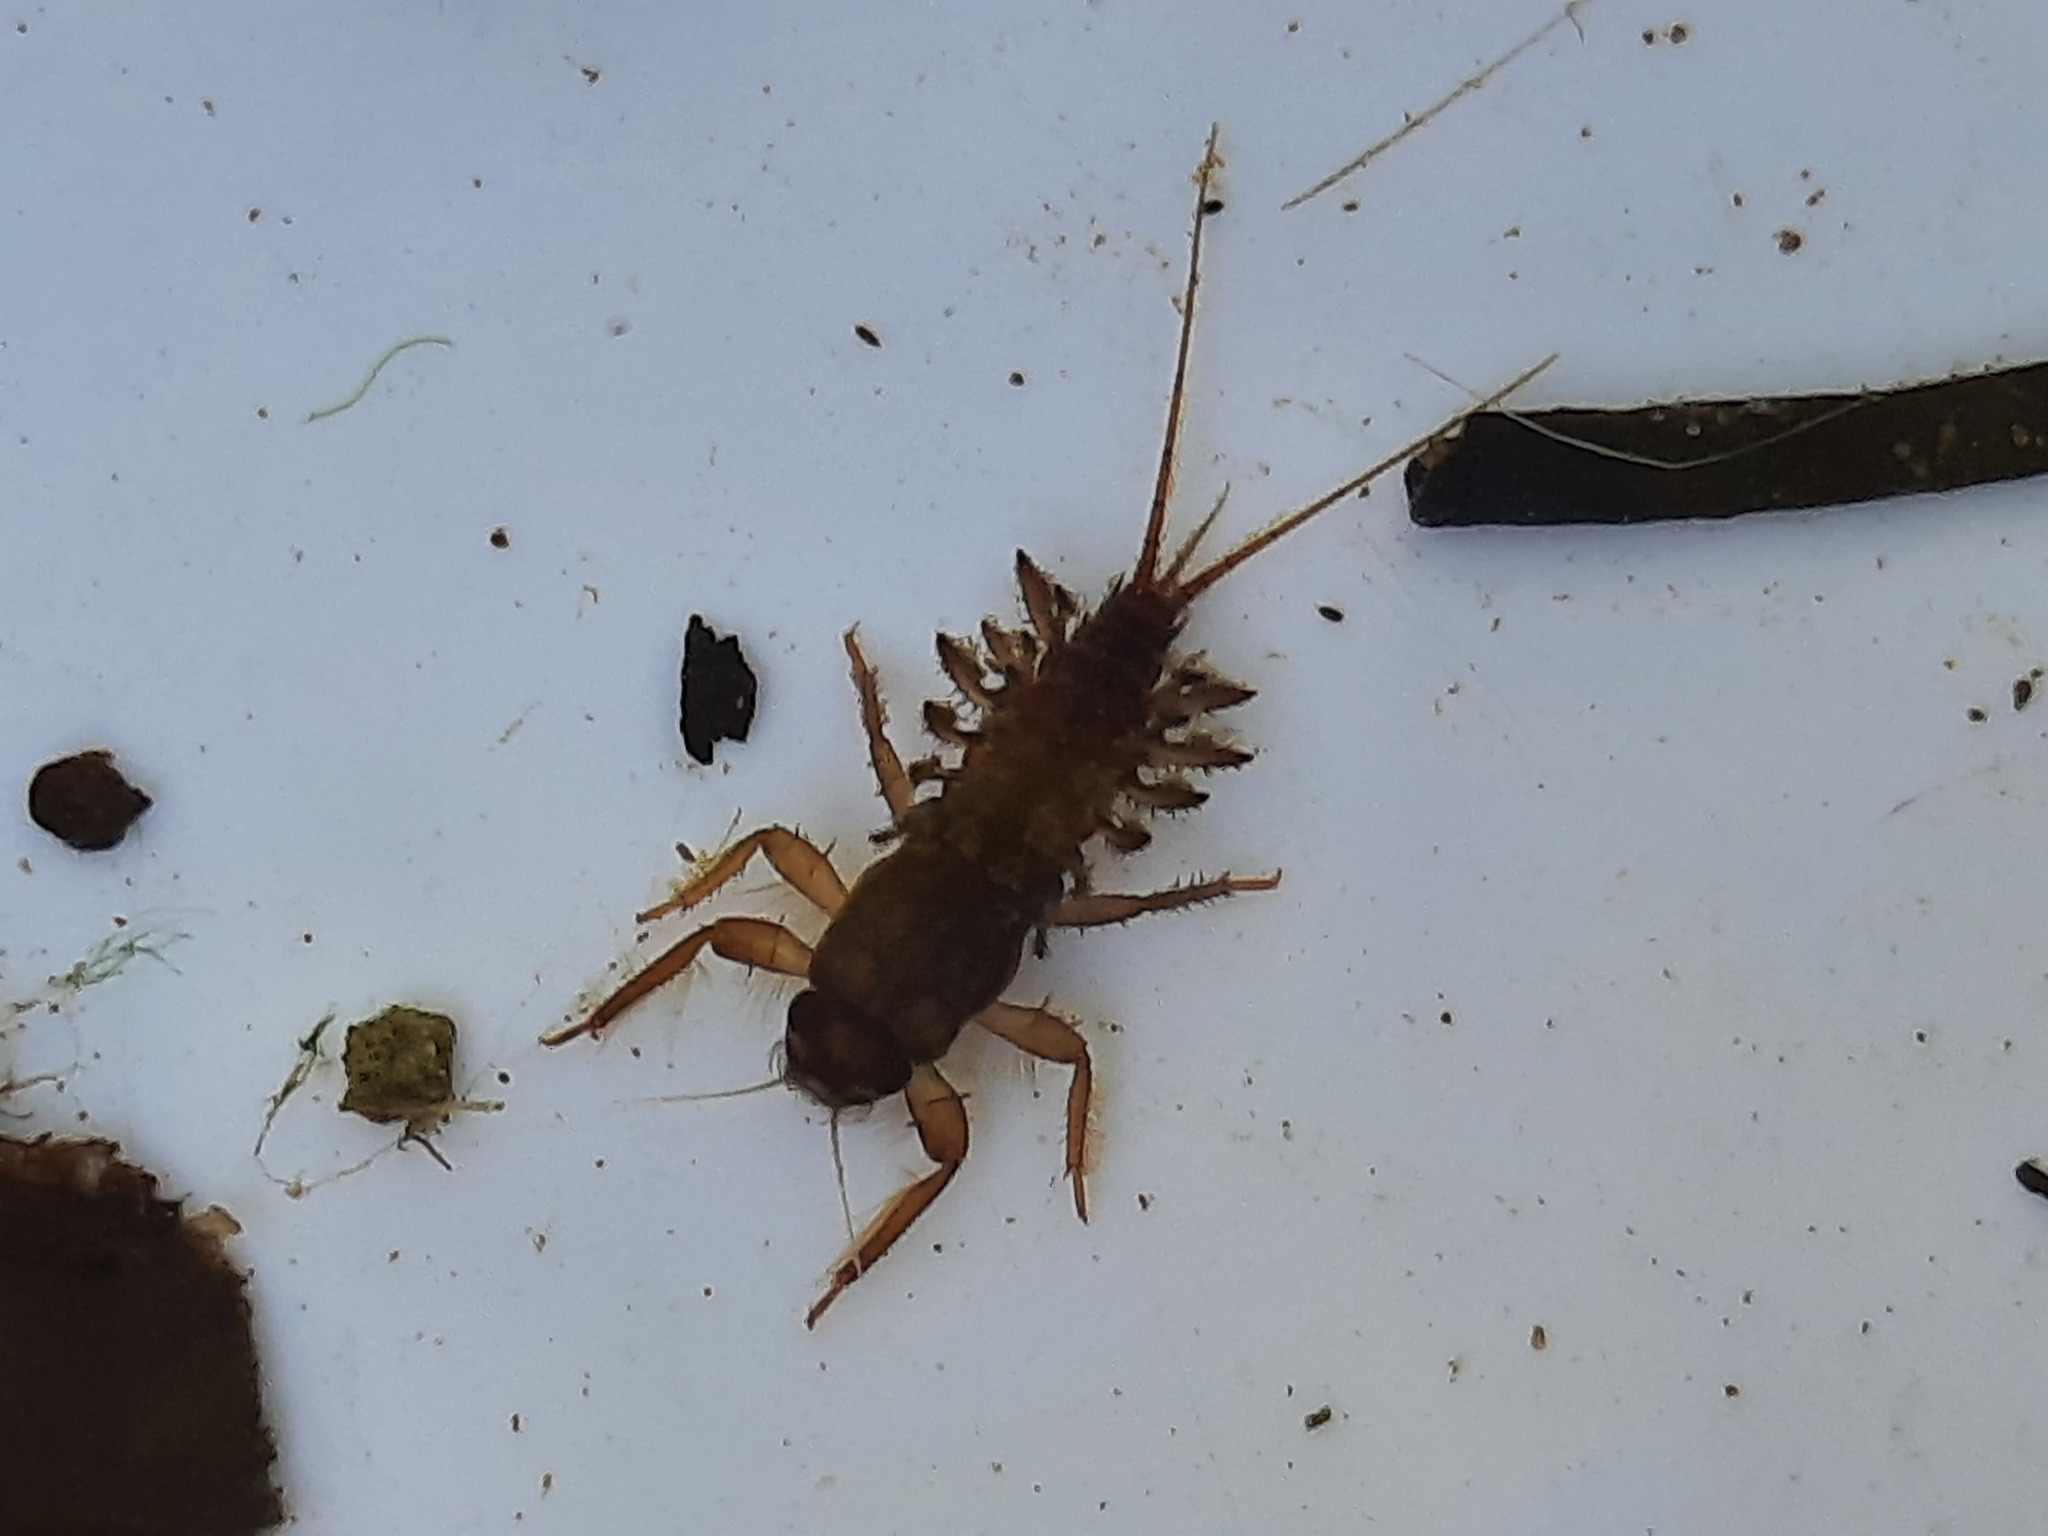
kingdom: Animalia
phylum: Arthropoda
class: Insecta
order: Ephemeroptera
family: Coloburiscidae
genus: Coloburiscus
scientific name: Coloburiscus humeralis
